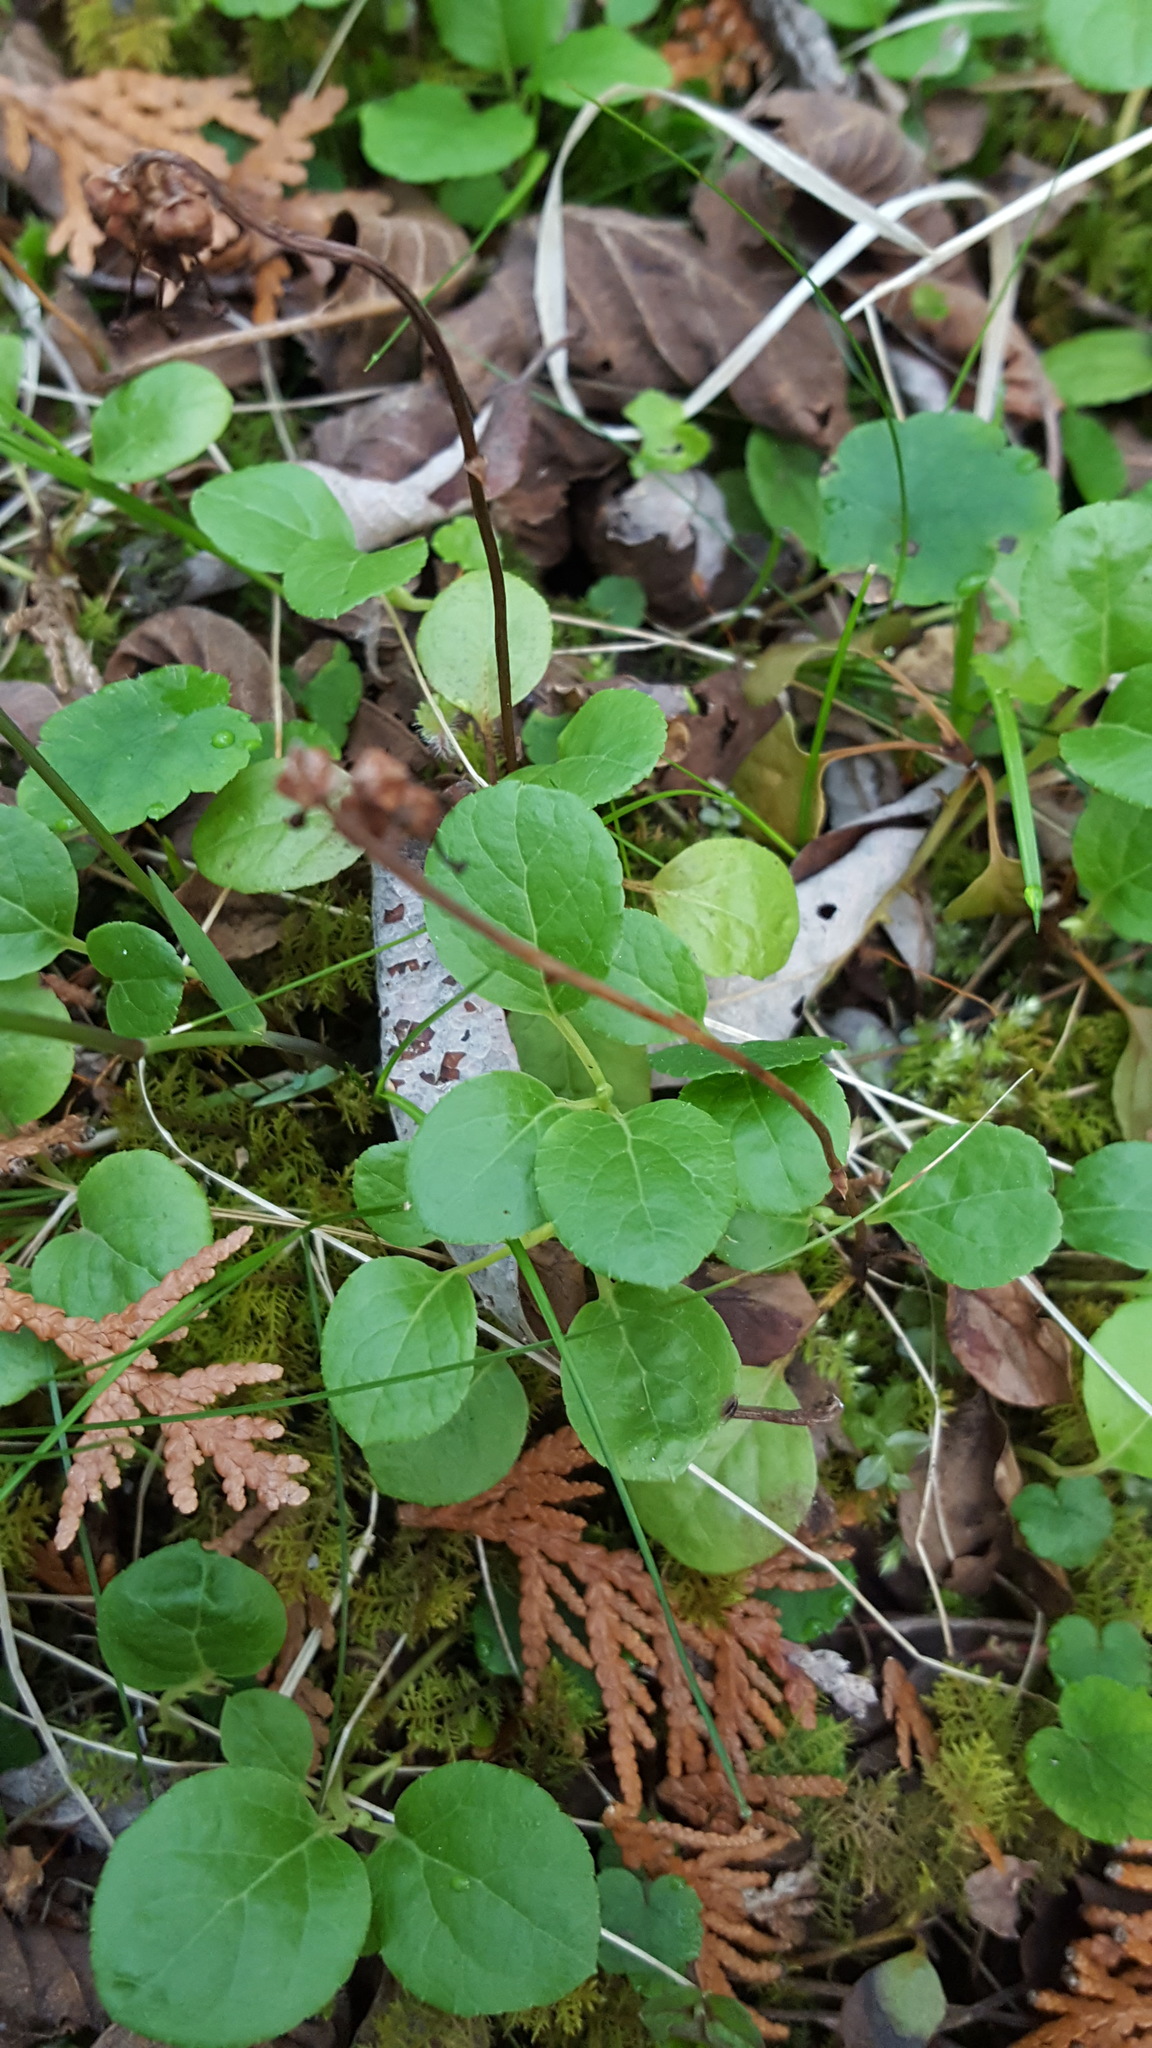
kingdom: Plantae
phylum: Tracheophyta
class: Magnoliopsida
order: Ericales
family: Ericaceae
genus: Orthilia
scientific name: Orthilia secunda
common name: One-sided orthilia
